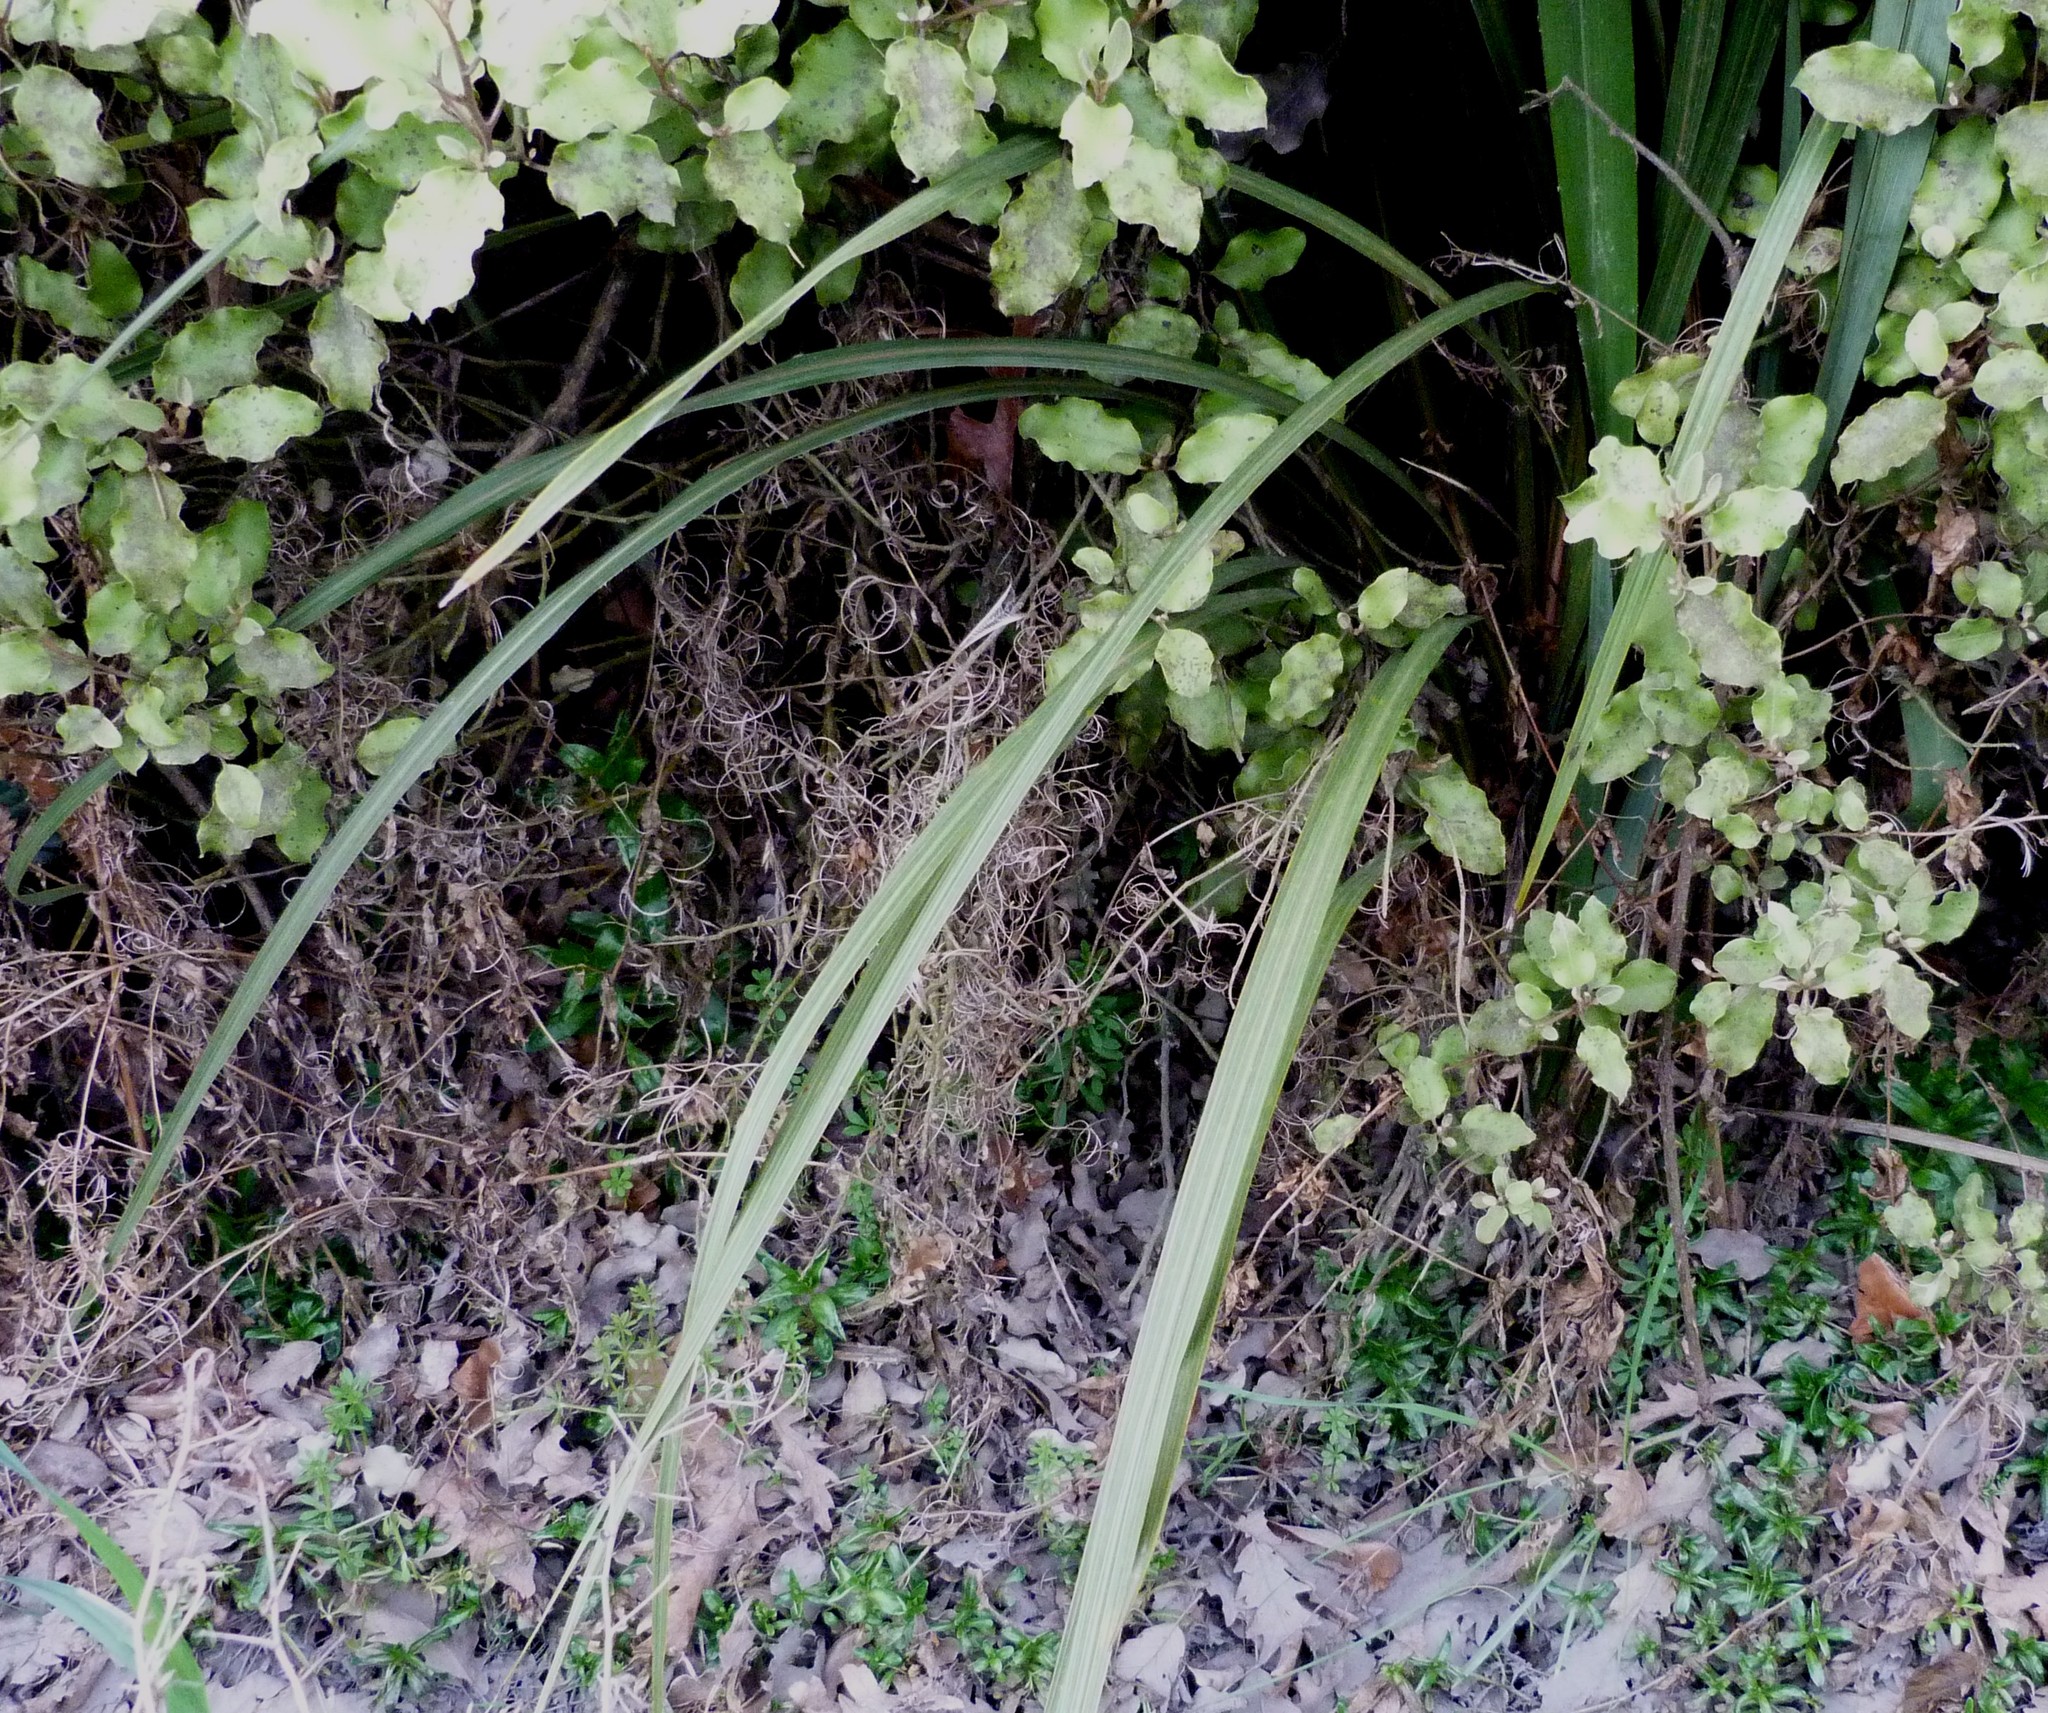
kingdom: Plantae
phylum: Tracheophyta
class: Liliopsida
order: Asparagales
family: Asparagaceae
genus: Cordyline
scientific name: Cordyline australis
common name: Cabbage-palm
